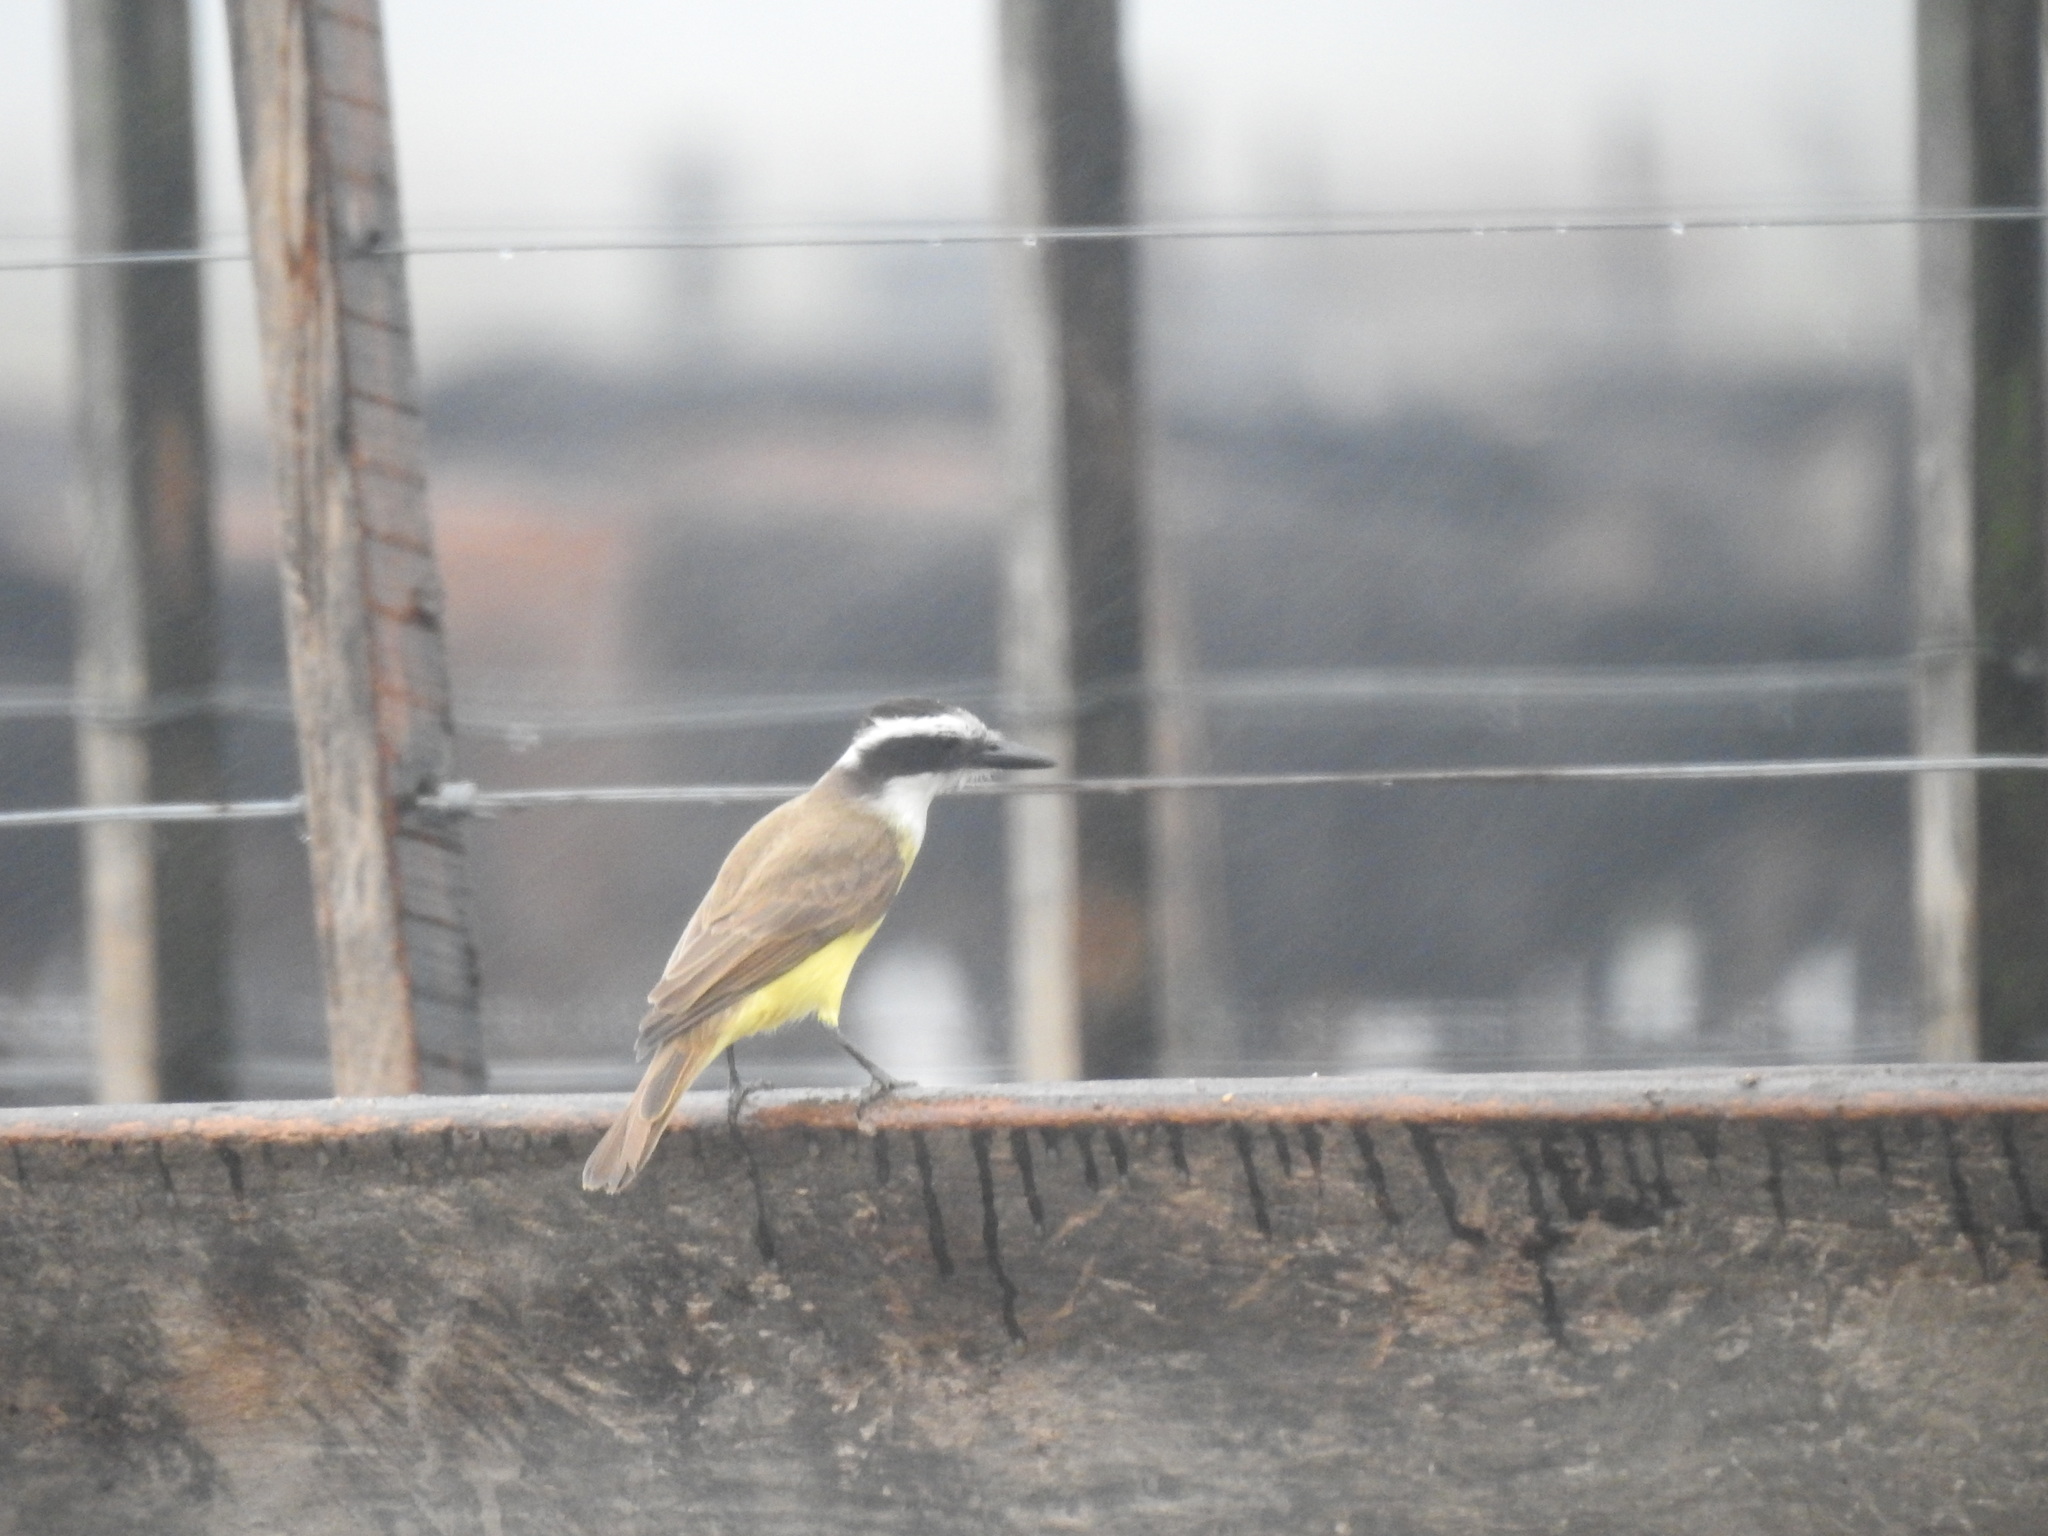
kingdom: Animalia
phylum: Chordata
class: Aves
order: Passeriformes
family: Tyrannidae
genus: Pitangus
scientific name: Pitangus sulphuratus
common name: Great kiskadee
